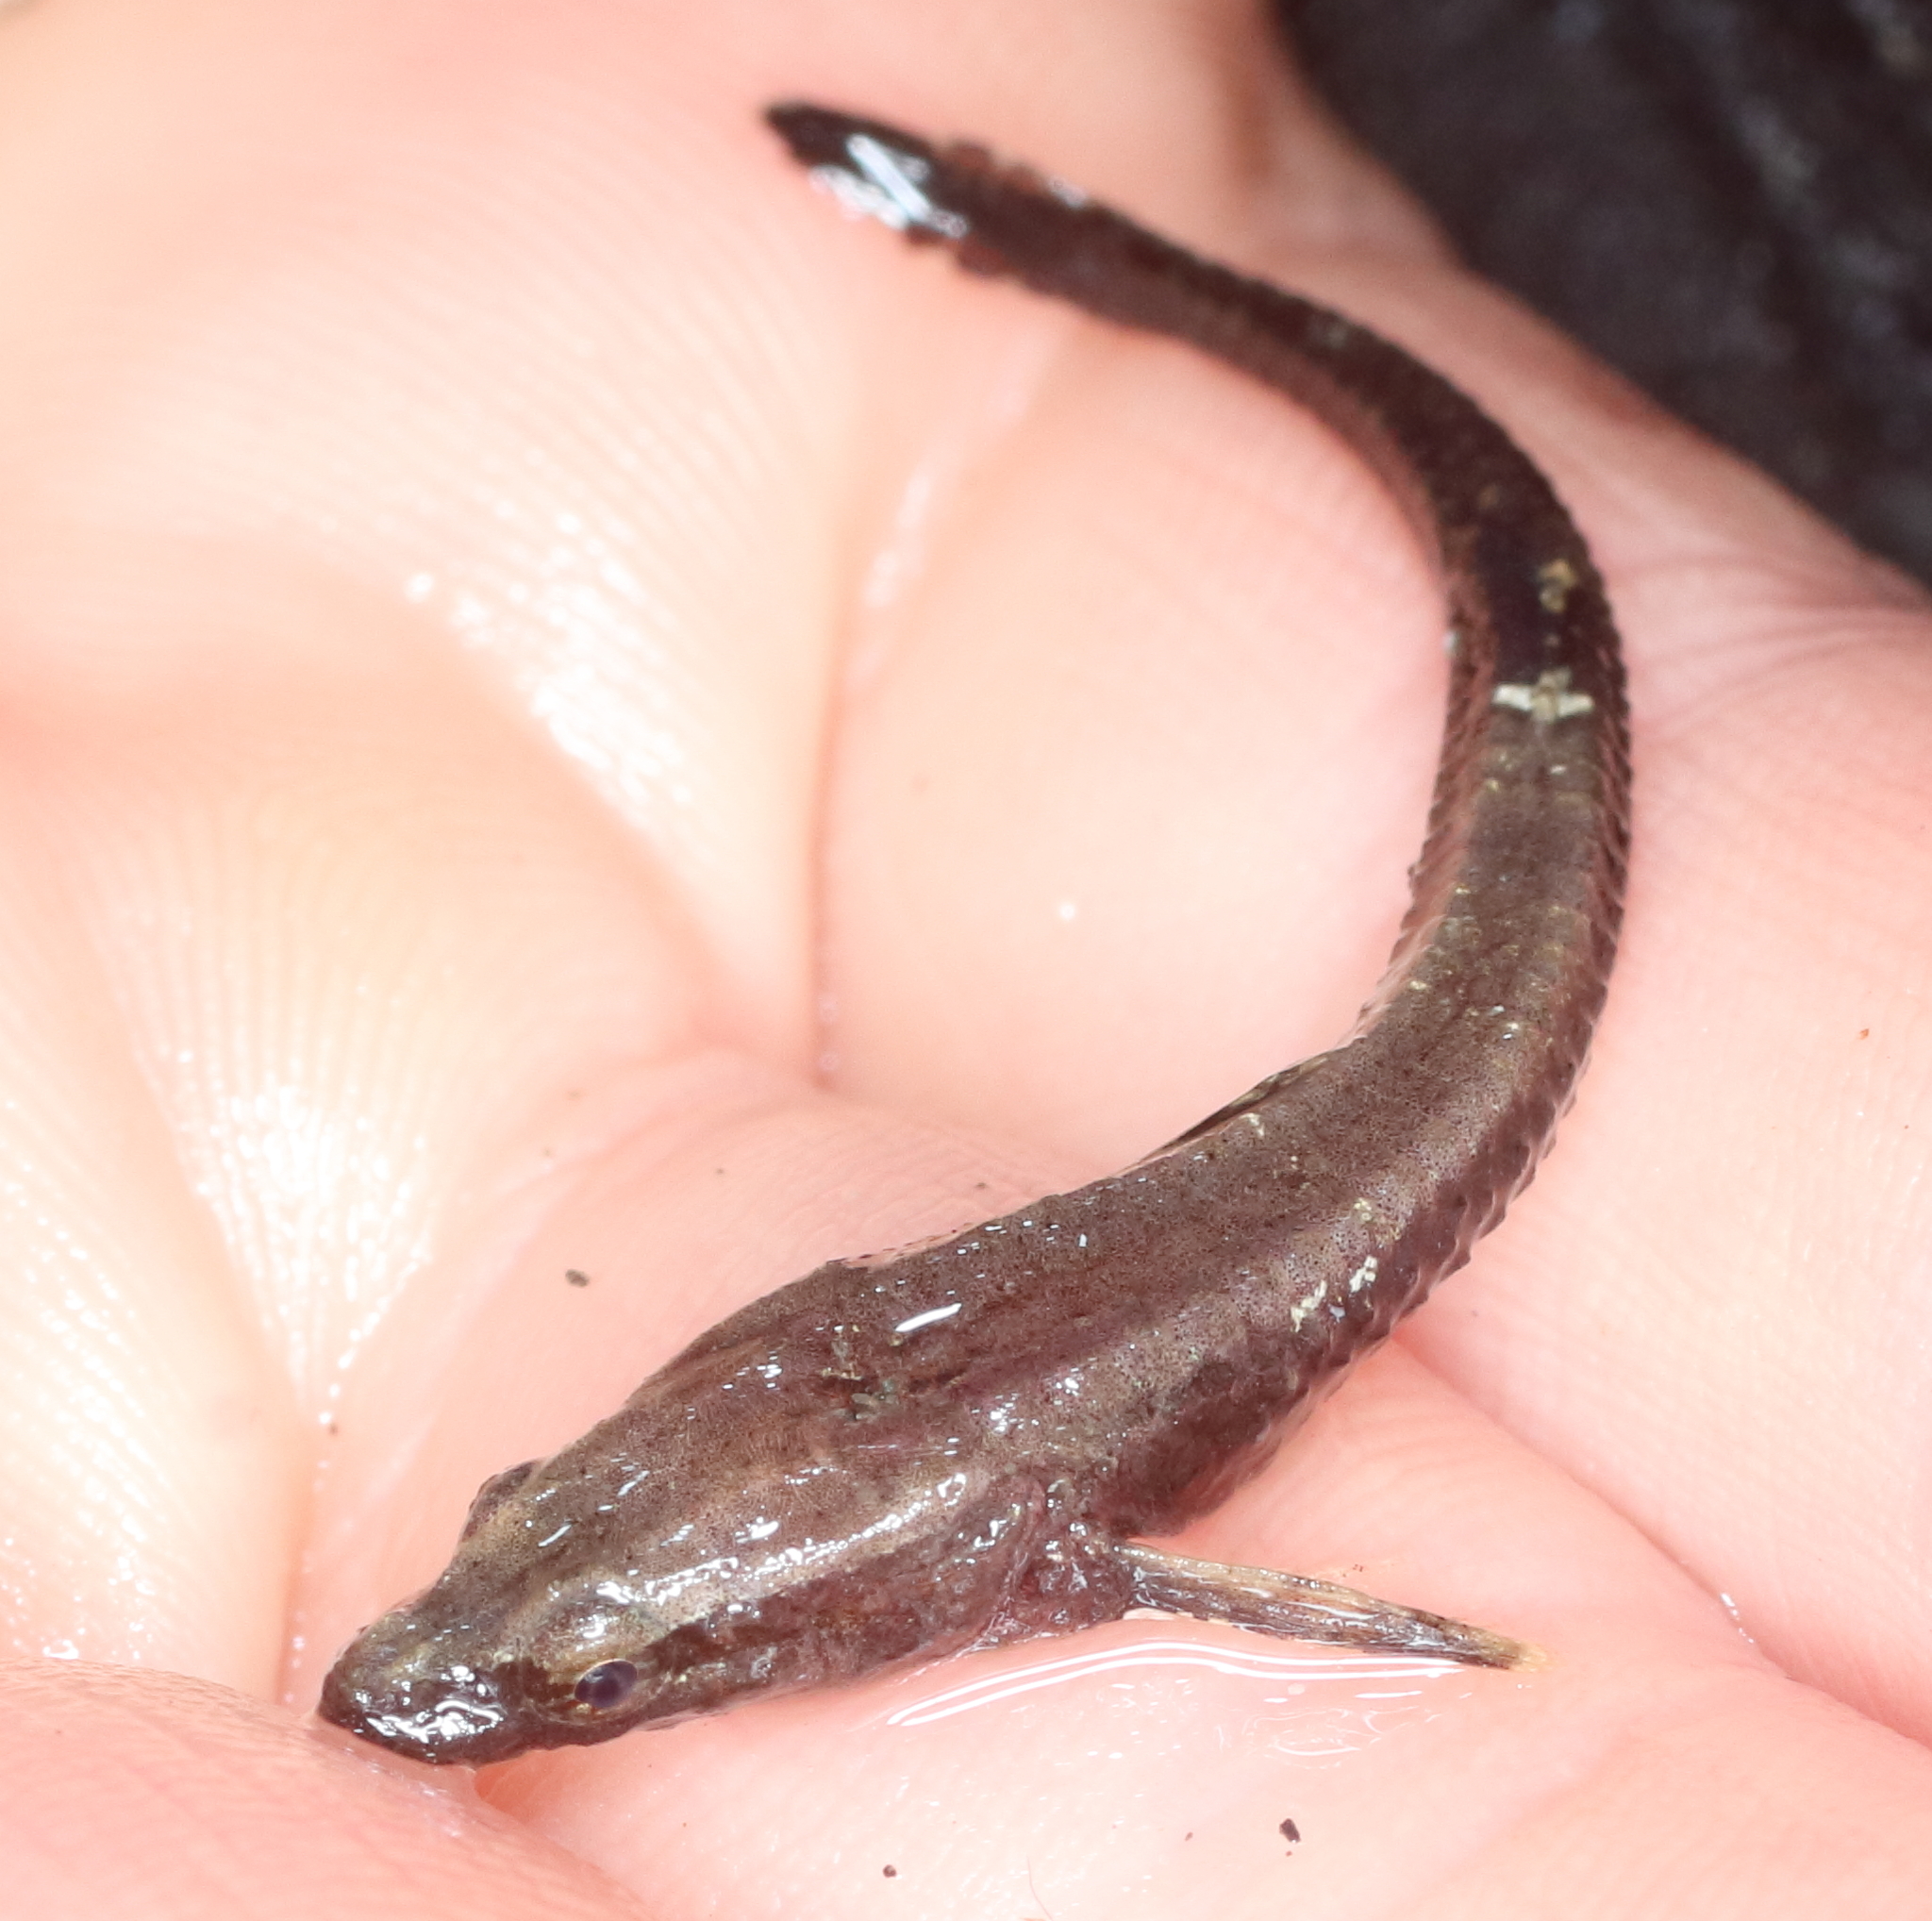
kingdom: Animalia
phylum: Chordata
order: Scorpaeniformes
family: Agonidae
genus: Anoplagonus
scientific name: Anoplagonus inermis
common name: Smooth alligatorfish
